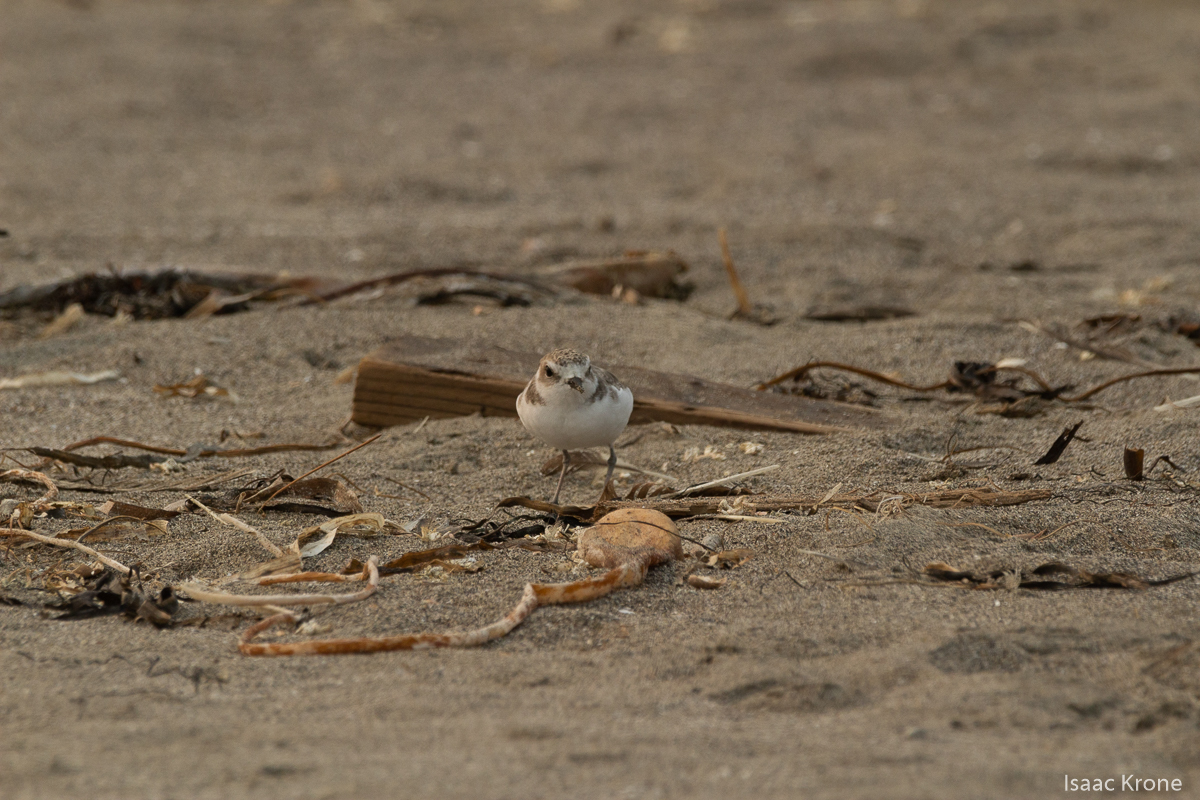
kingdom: Animalia
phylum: Chordata
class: Aves
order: Charadriiformes
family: Charadriidae
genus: Anarhynchus
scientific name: Anarhynchus
